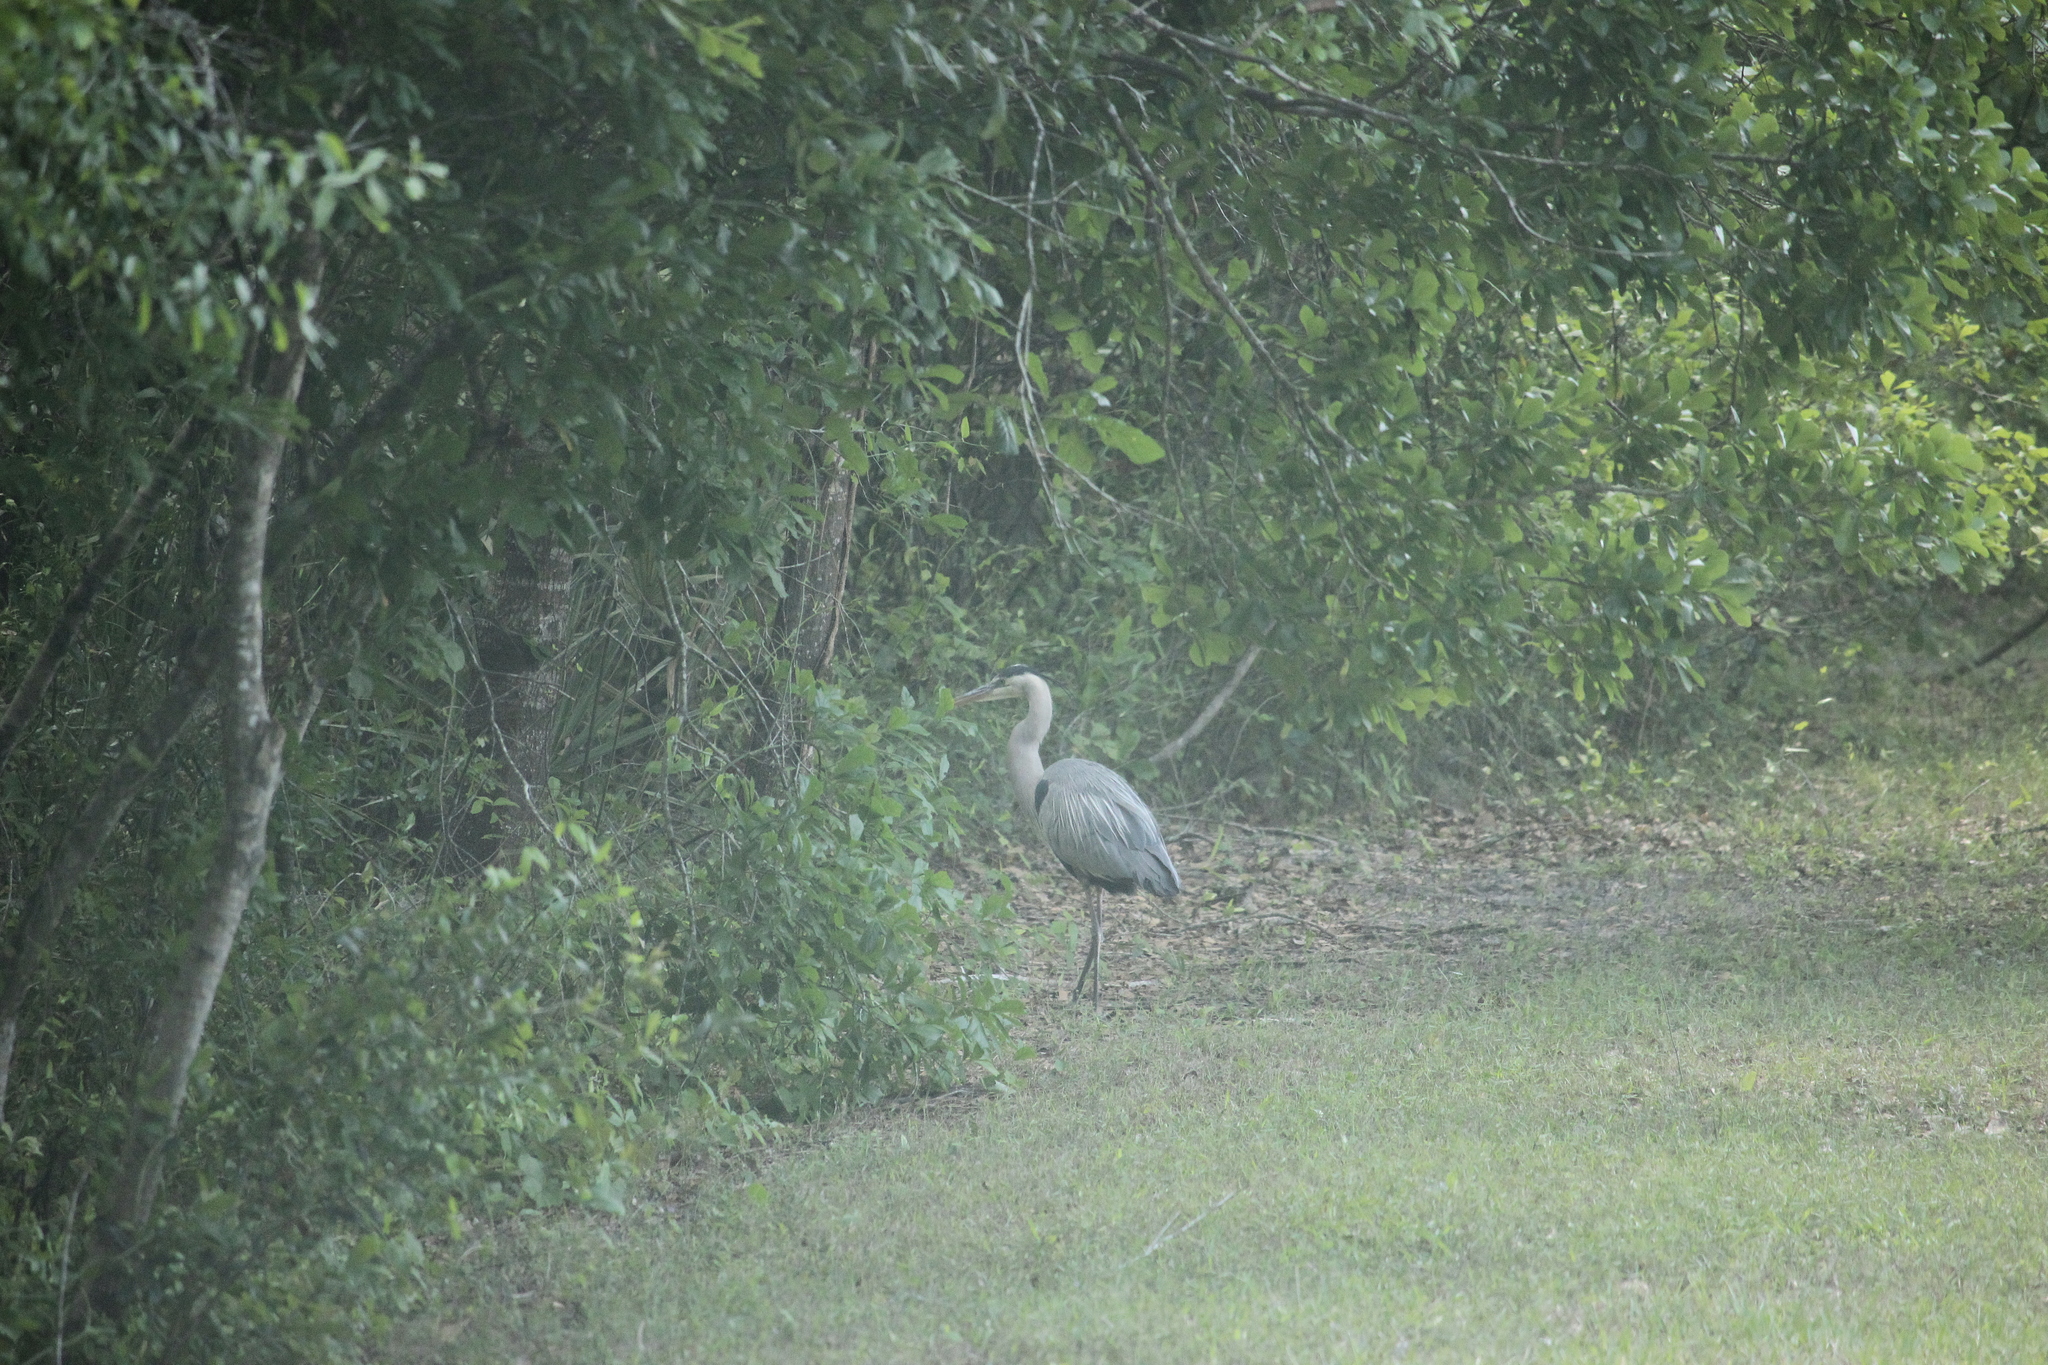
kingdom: Animalia
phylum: Chordata
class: Aves
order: Pelecaniformes
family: Ardeidae
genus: Ardea
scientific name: Ardea herodias
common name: Great blue heron
